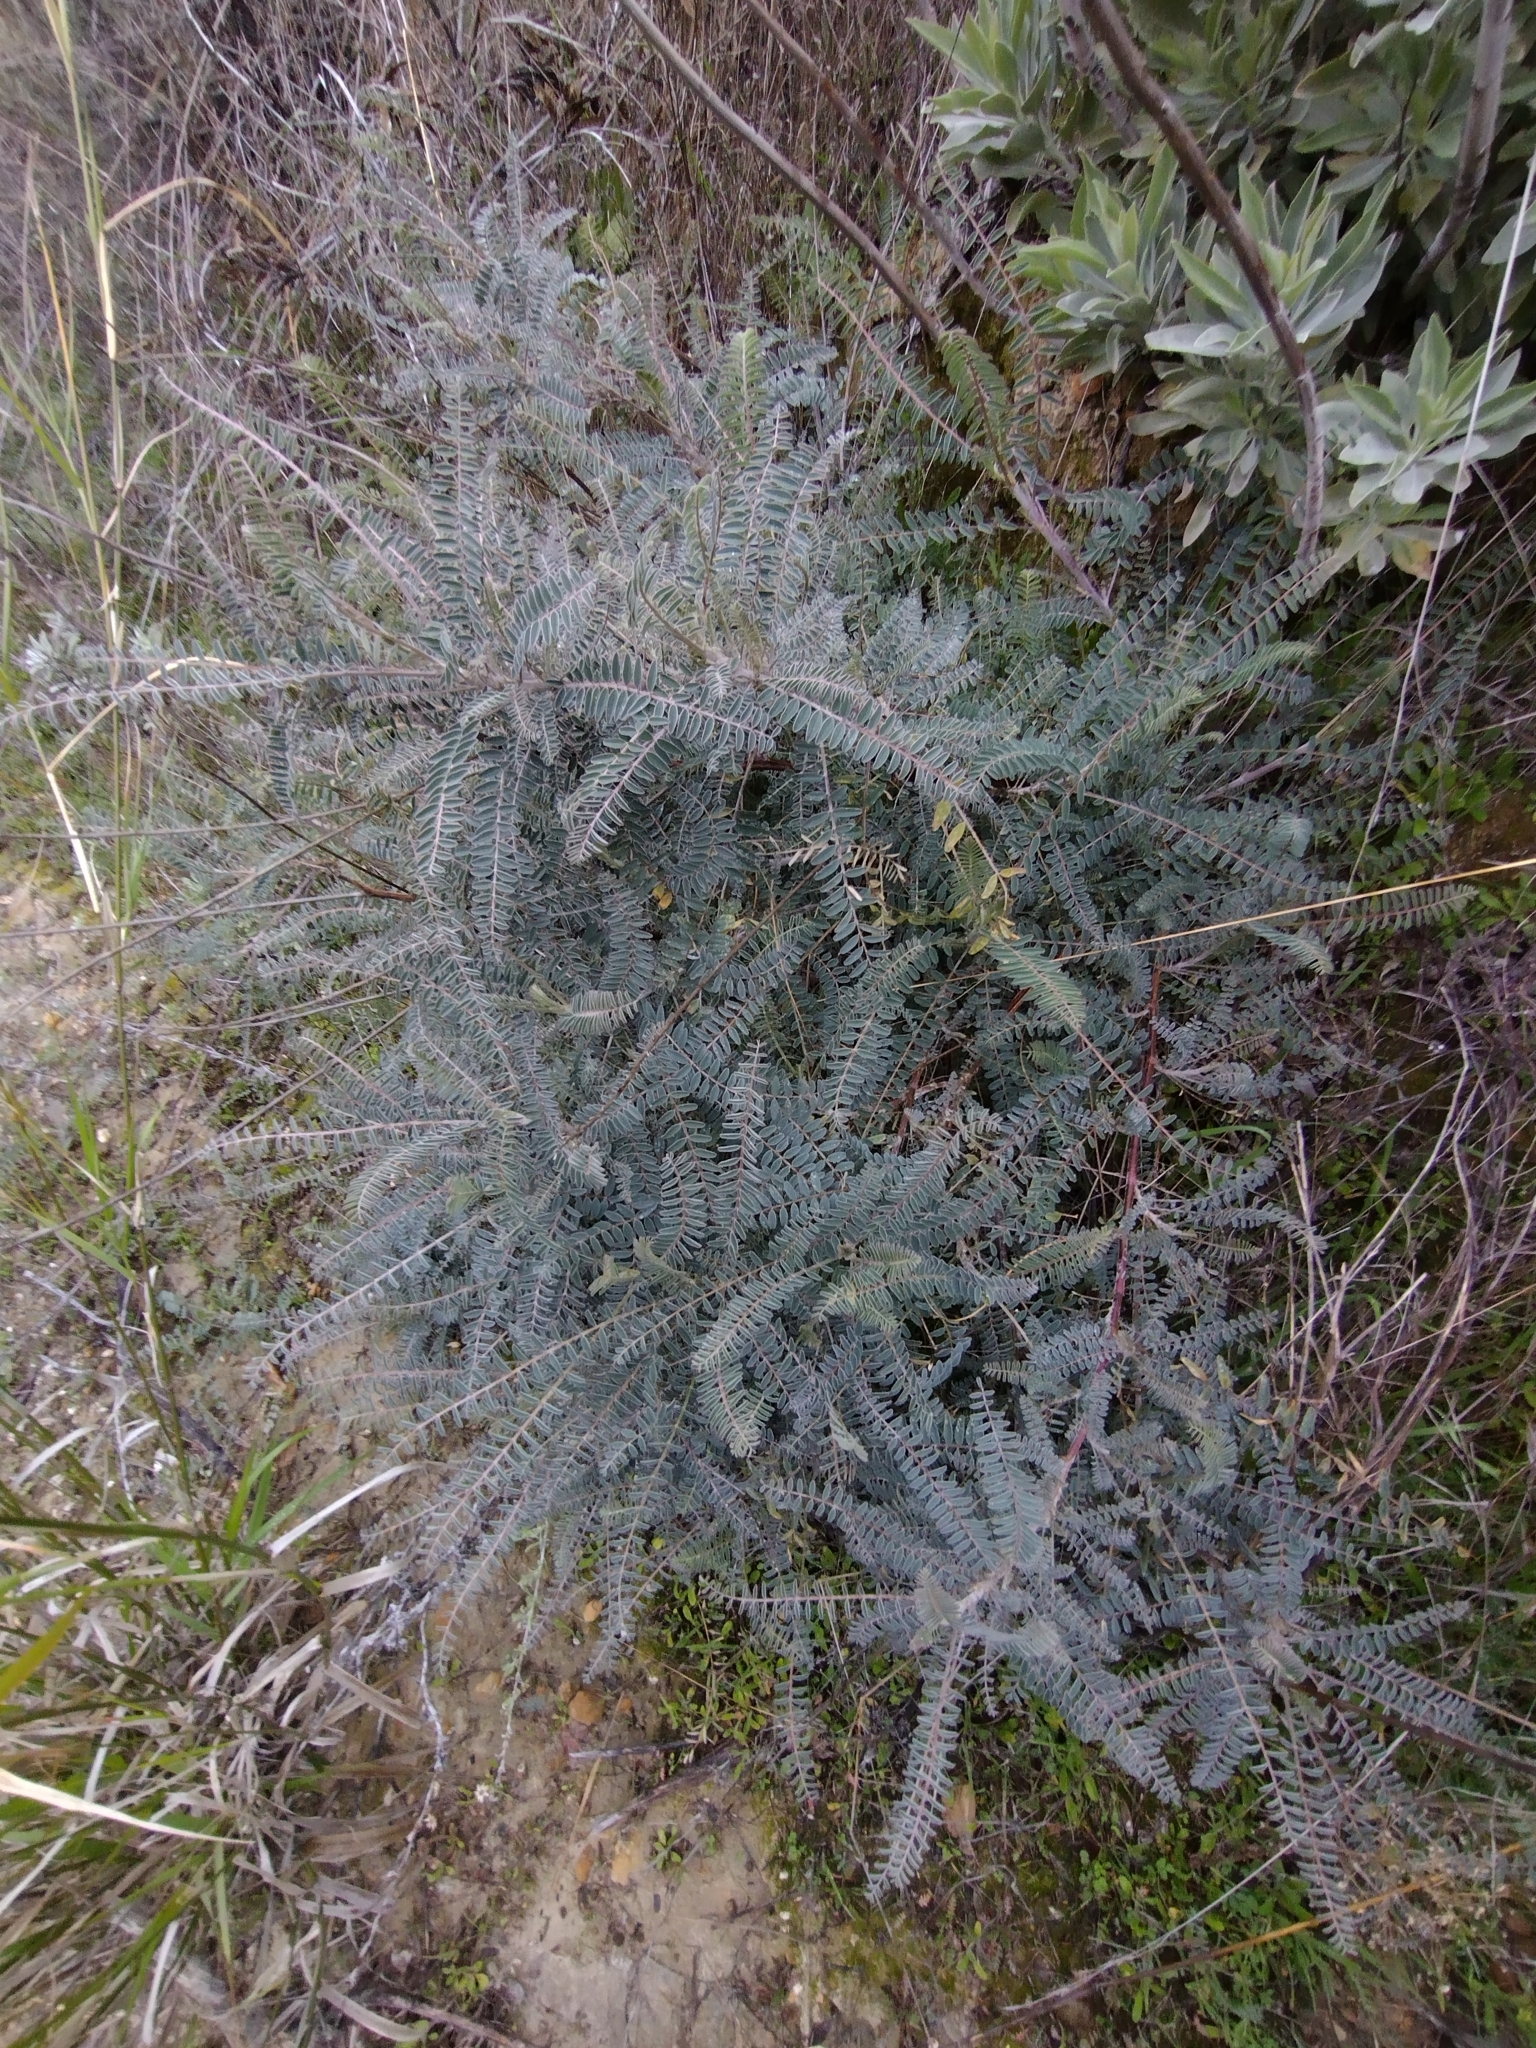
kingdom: Plantae
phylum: Tracheophyta
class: Magnoliopsida
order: Fabales
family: Fabaceae
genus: Astragalus
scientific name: Astragalus trichopodus
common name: Santa barbara milk-vetch
